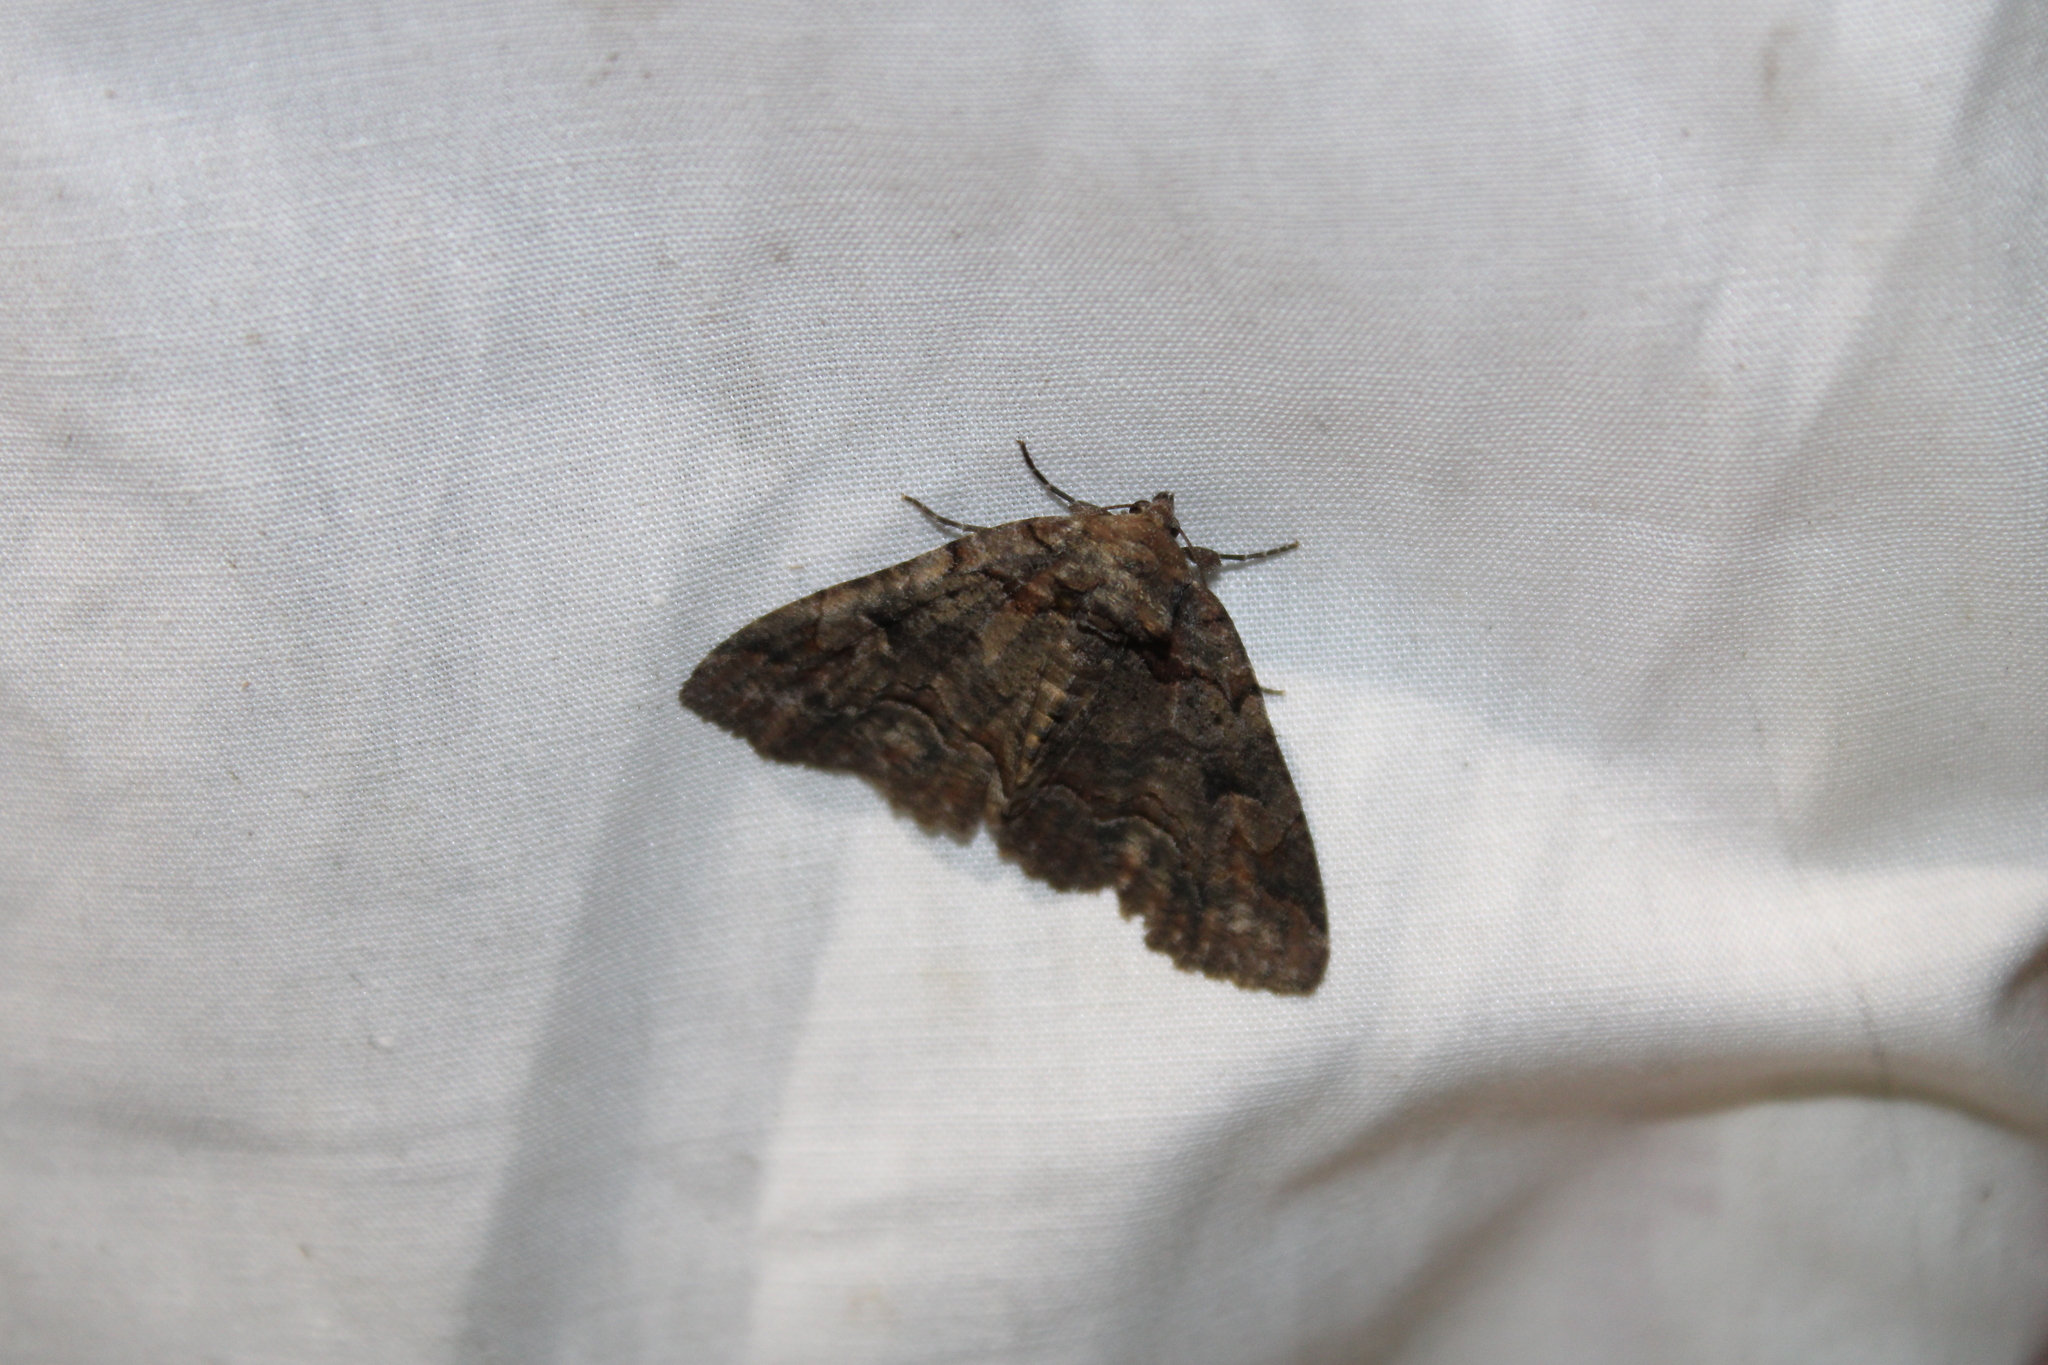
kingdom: Animalia
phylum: Arthropoda
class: Insecta
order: Lepidoptera
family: Erebidae
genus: Zale
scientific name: Zale helata
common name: Brown-spotted zale moth
